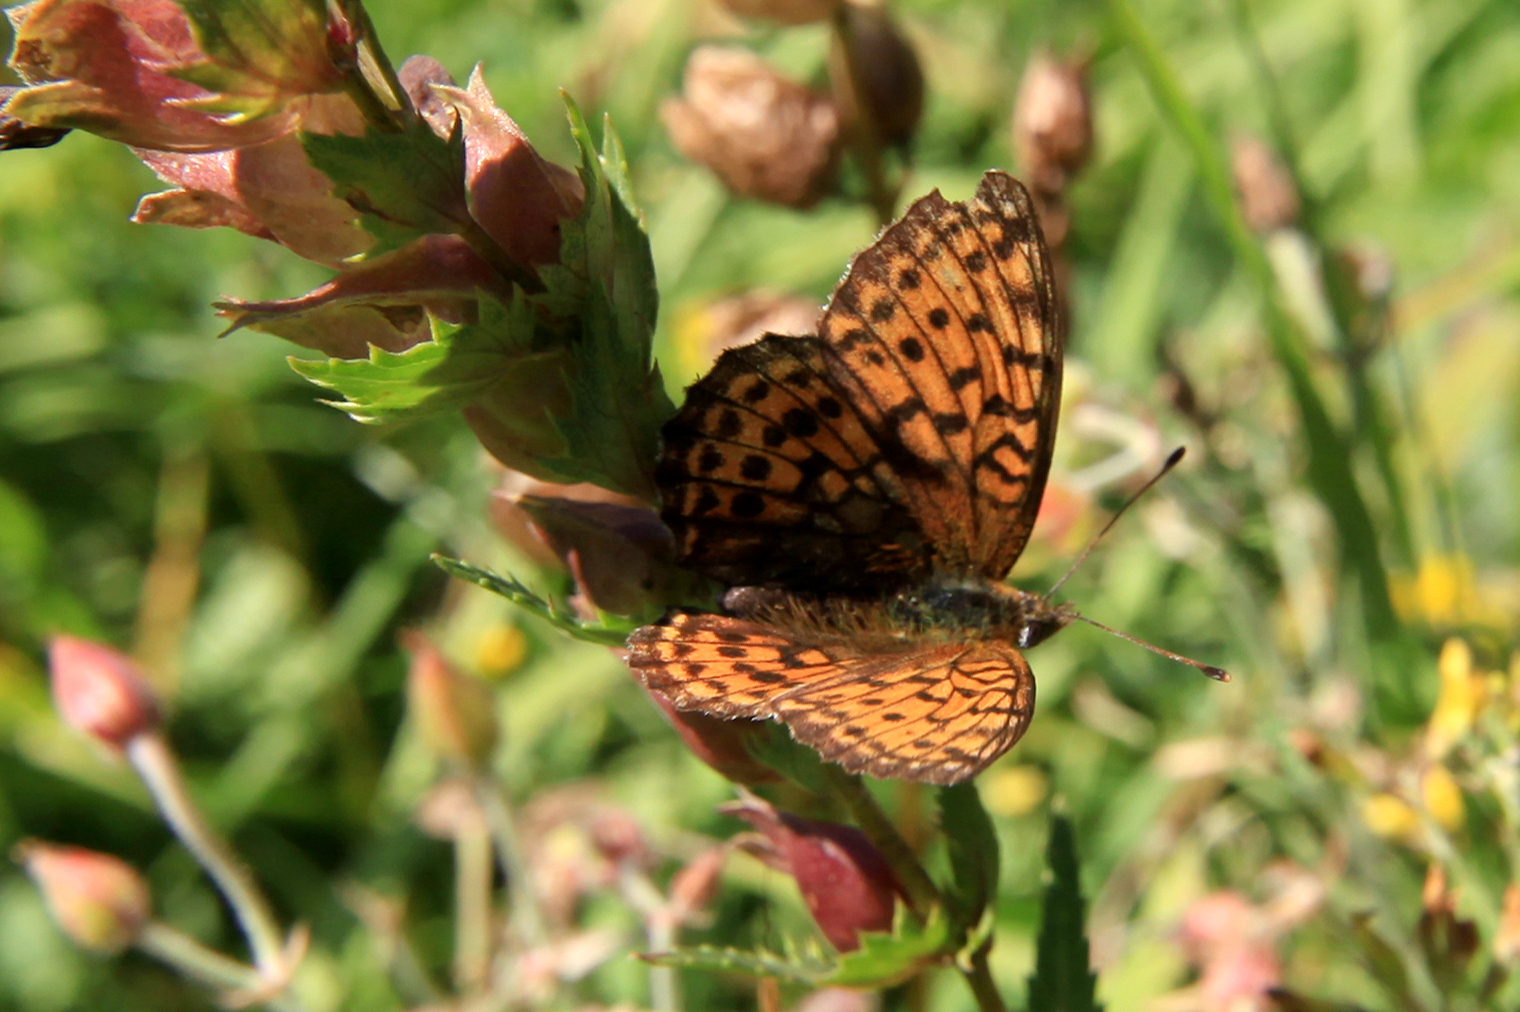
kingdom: Animalia
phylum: Arthropoda
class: Insecta
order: Lepidoptera
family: Nymphalidae
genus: Brenthis
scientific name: Brenthis ino
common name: Lesser marbled fritillary
